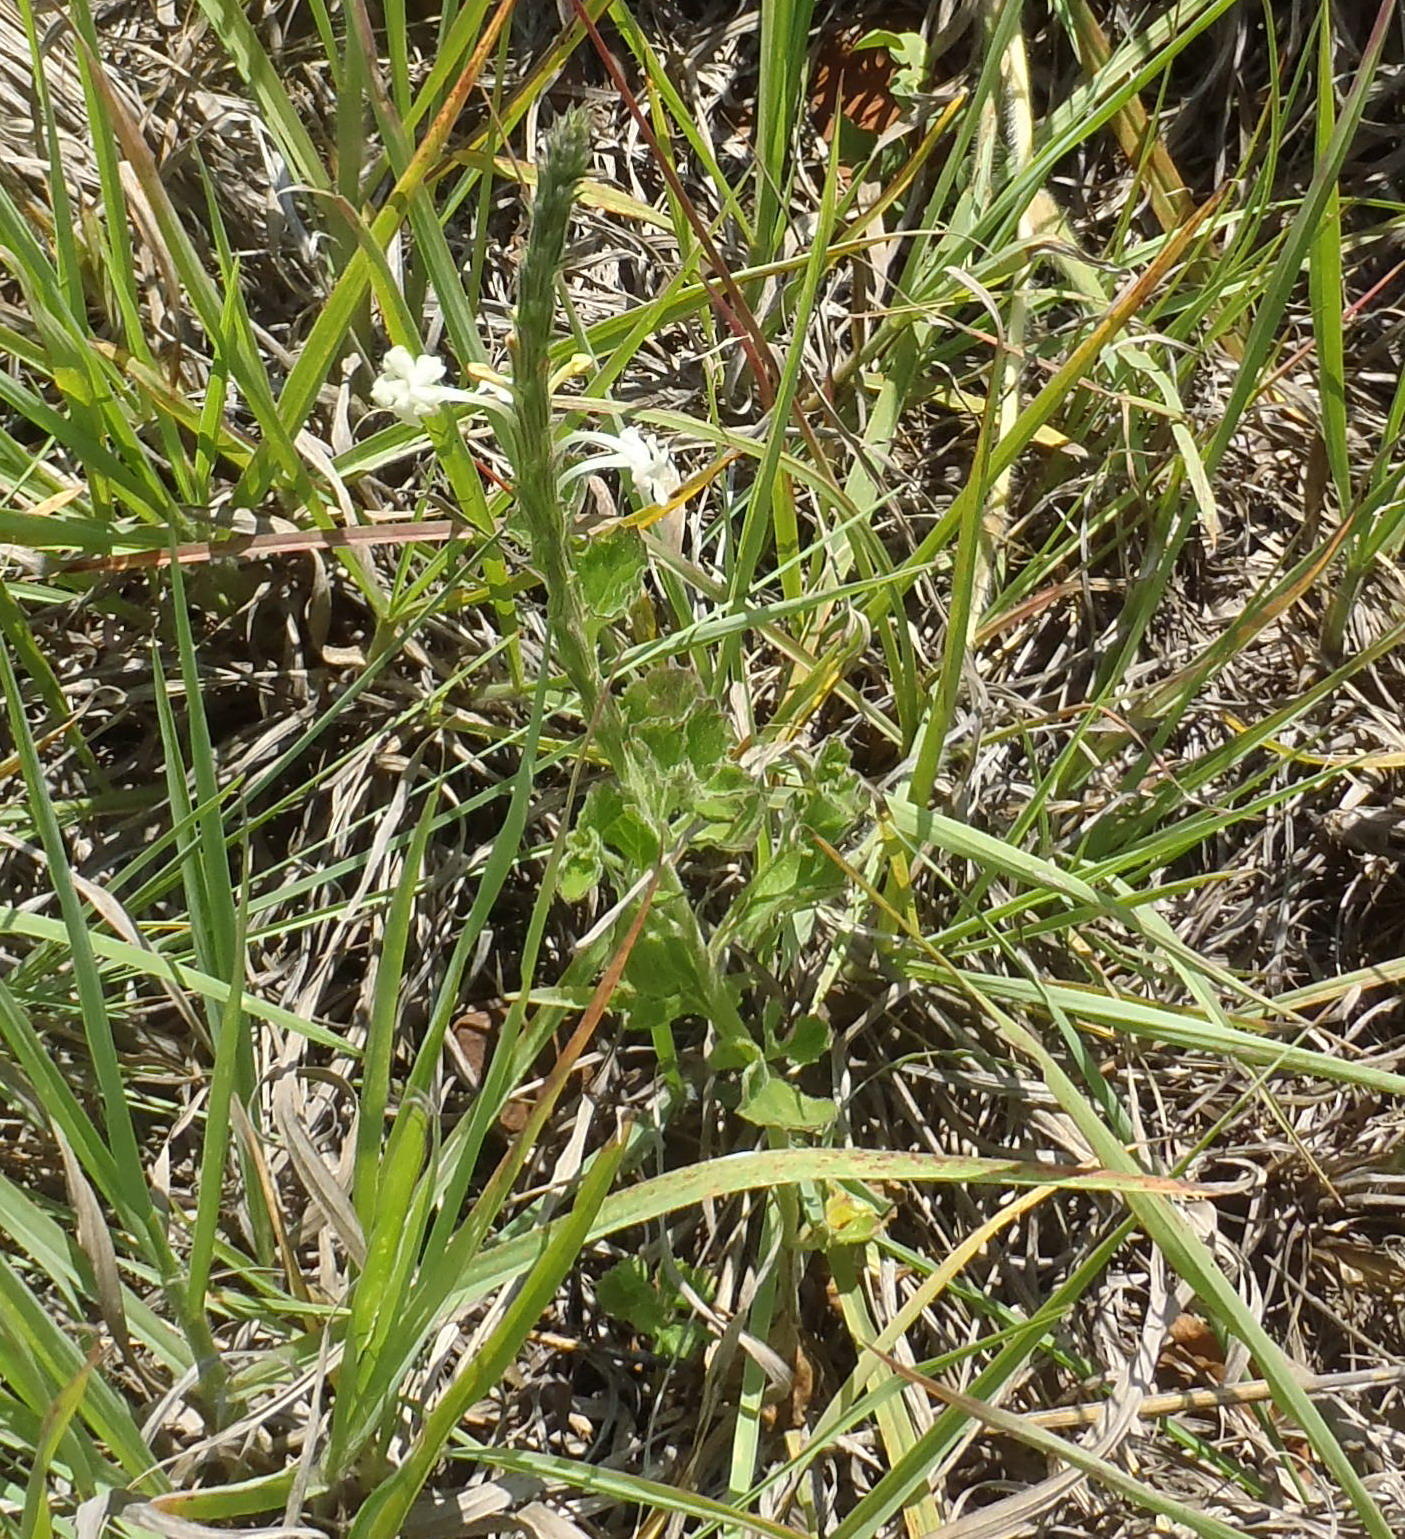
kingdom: Plantae
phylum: Tracheophyta
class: Magnoliopsida
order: Lamiales
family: Verbenaceae
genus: Chascanum
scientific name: Chascanum hederaceum
